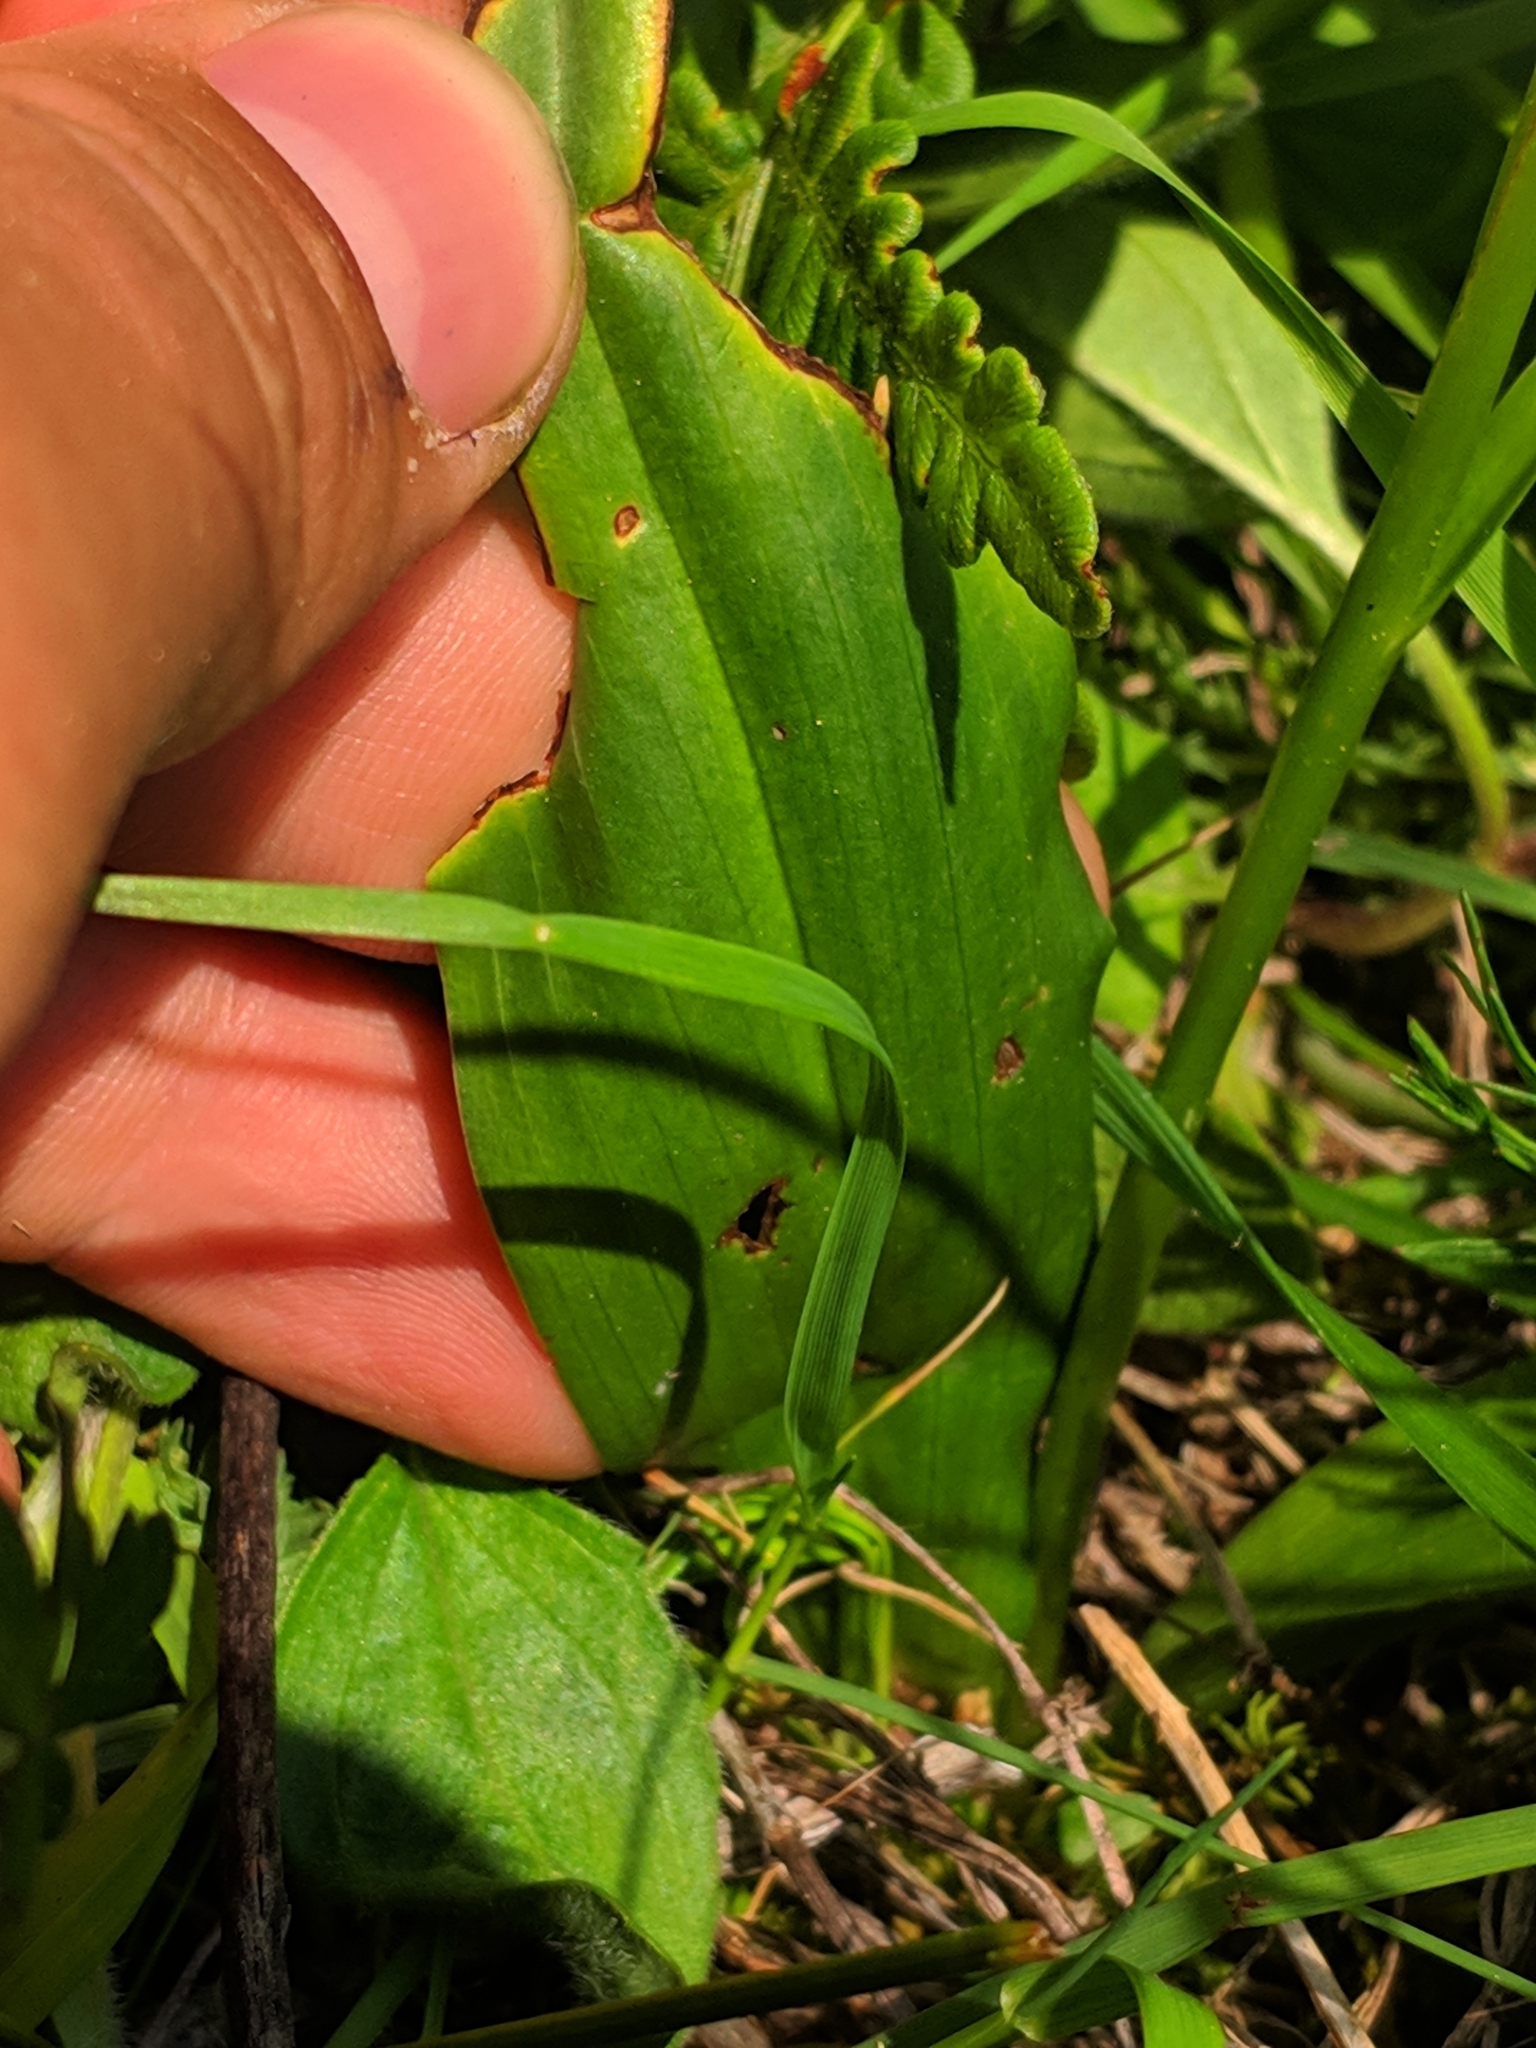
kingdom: Plantae
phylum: Tracheophyta
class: Liliopsida
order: Asparagales
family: Orchidaceae
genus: Platanthera
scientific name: Platanthera bifolia
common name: Lesser butterfly-orchid
